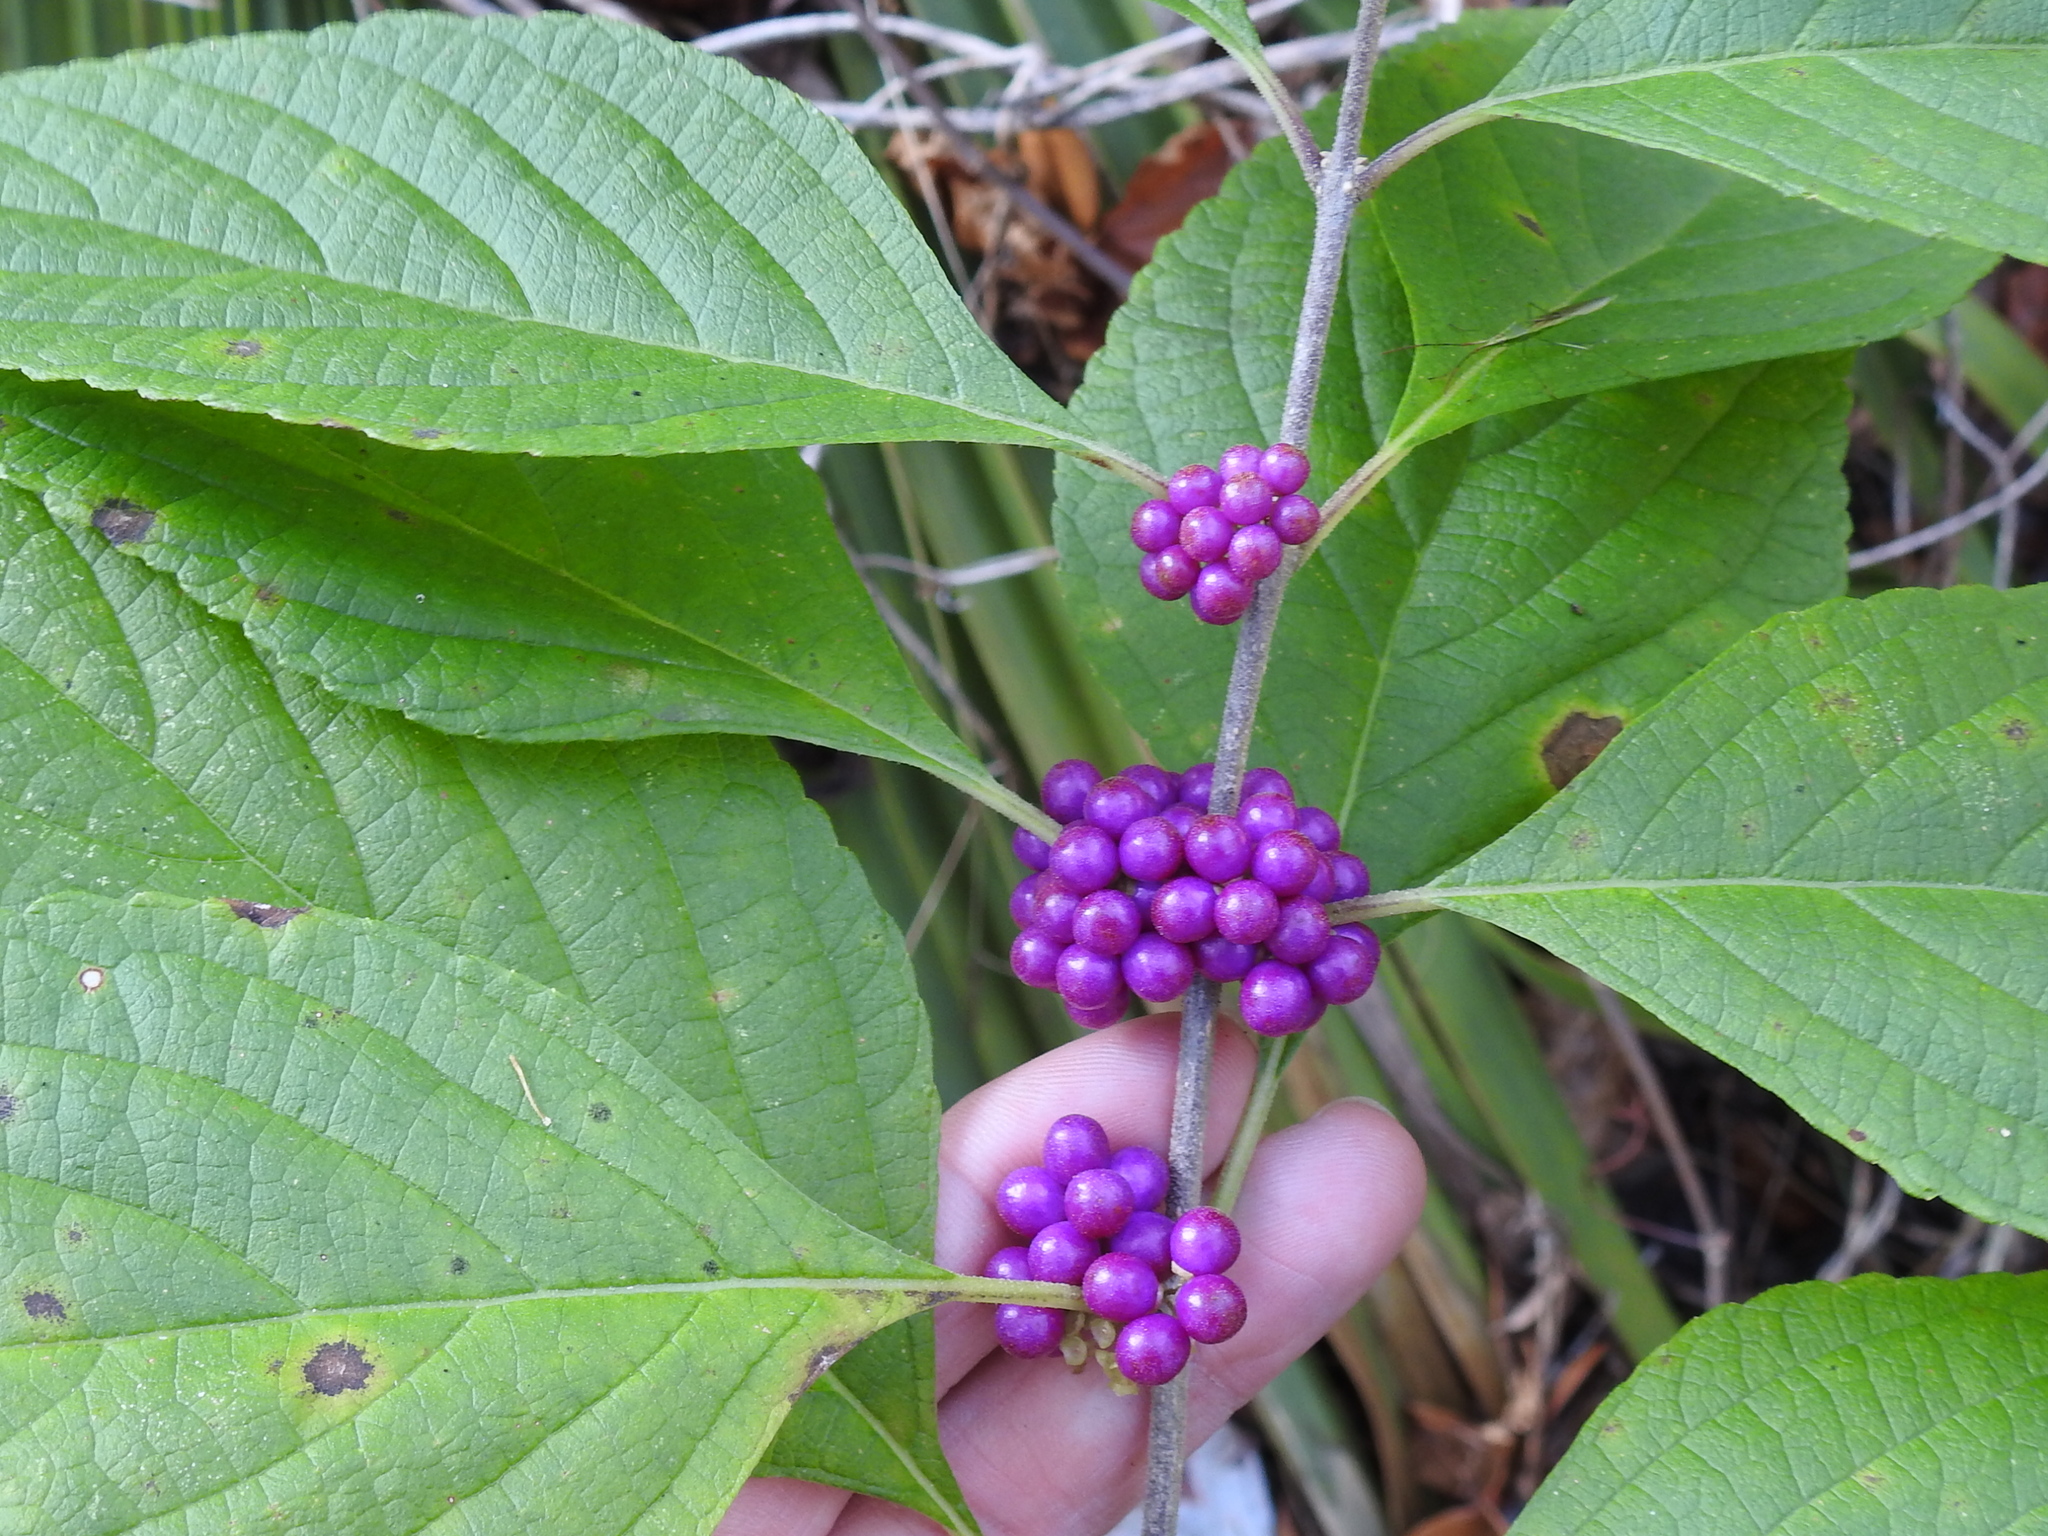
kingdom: Plantae
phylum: Tracheophyta
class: Magnoliopsida
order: Lamiales
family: Lamiaceae
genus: Callicarpa
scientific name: Callicarpa americana
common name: American beautyberry
